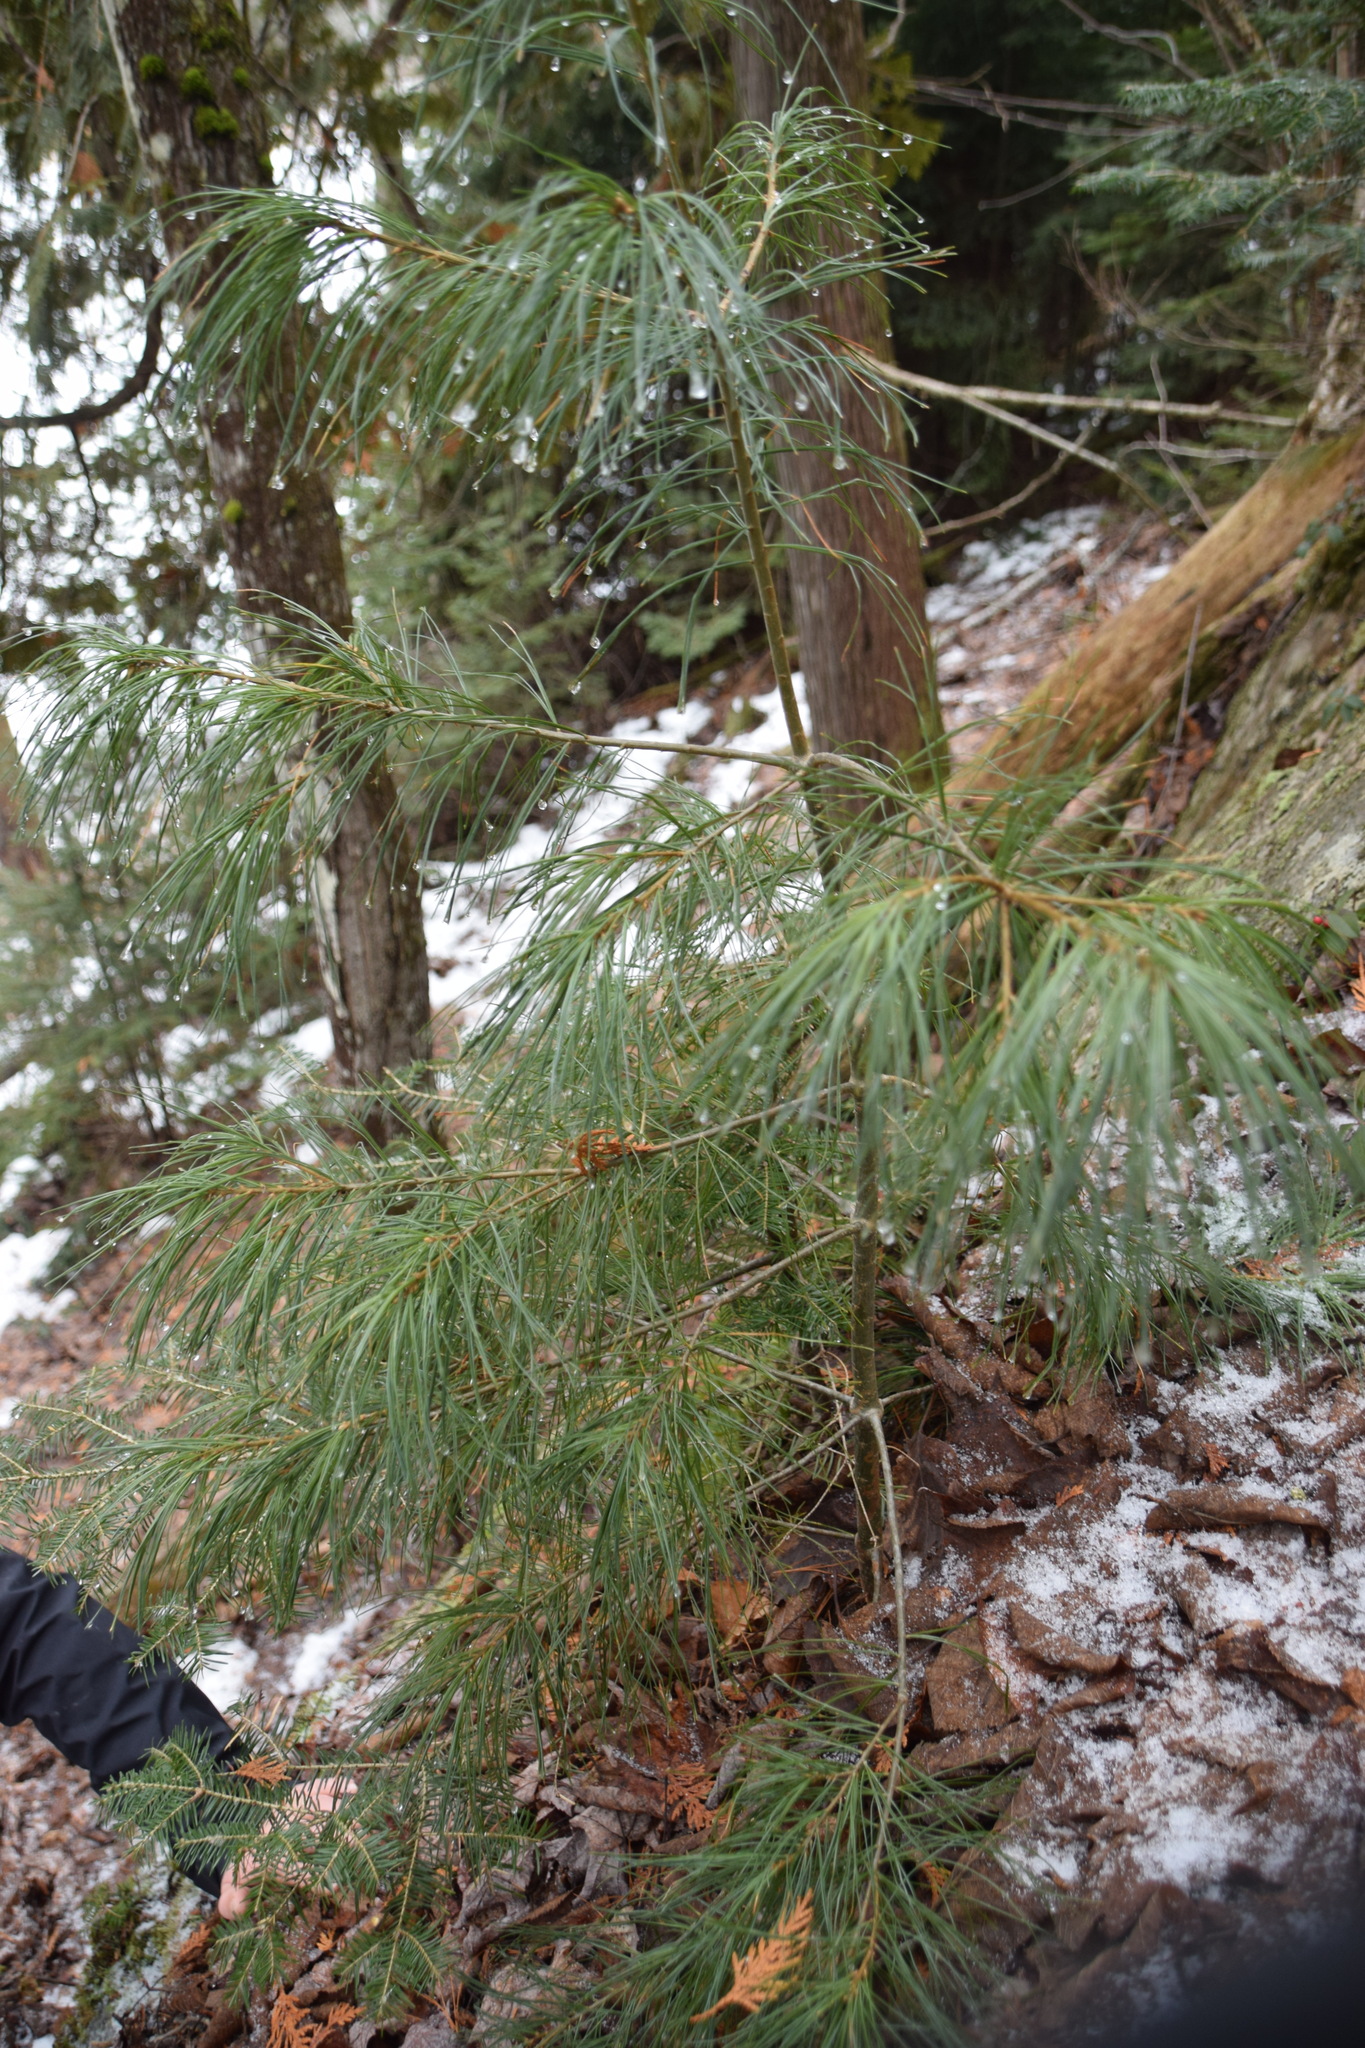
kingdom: Plantae
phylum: Tracheophyta
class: Pinopsida
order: Pinales
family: Pinaceae
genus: Pinus
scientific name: Pinus strobus
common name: Weymouth pine
